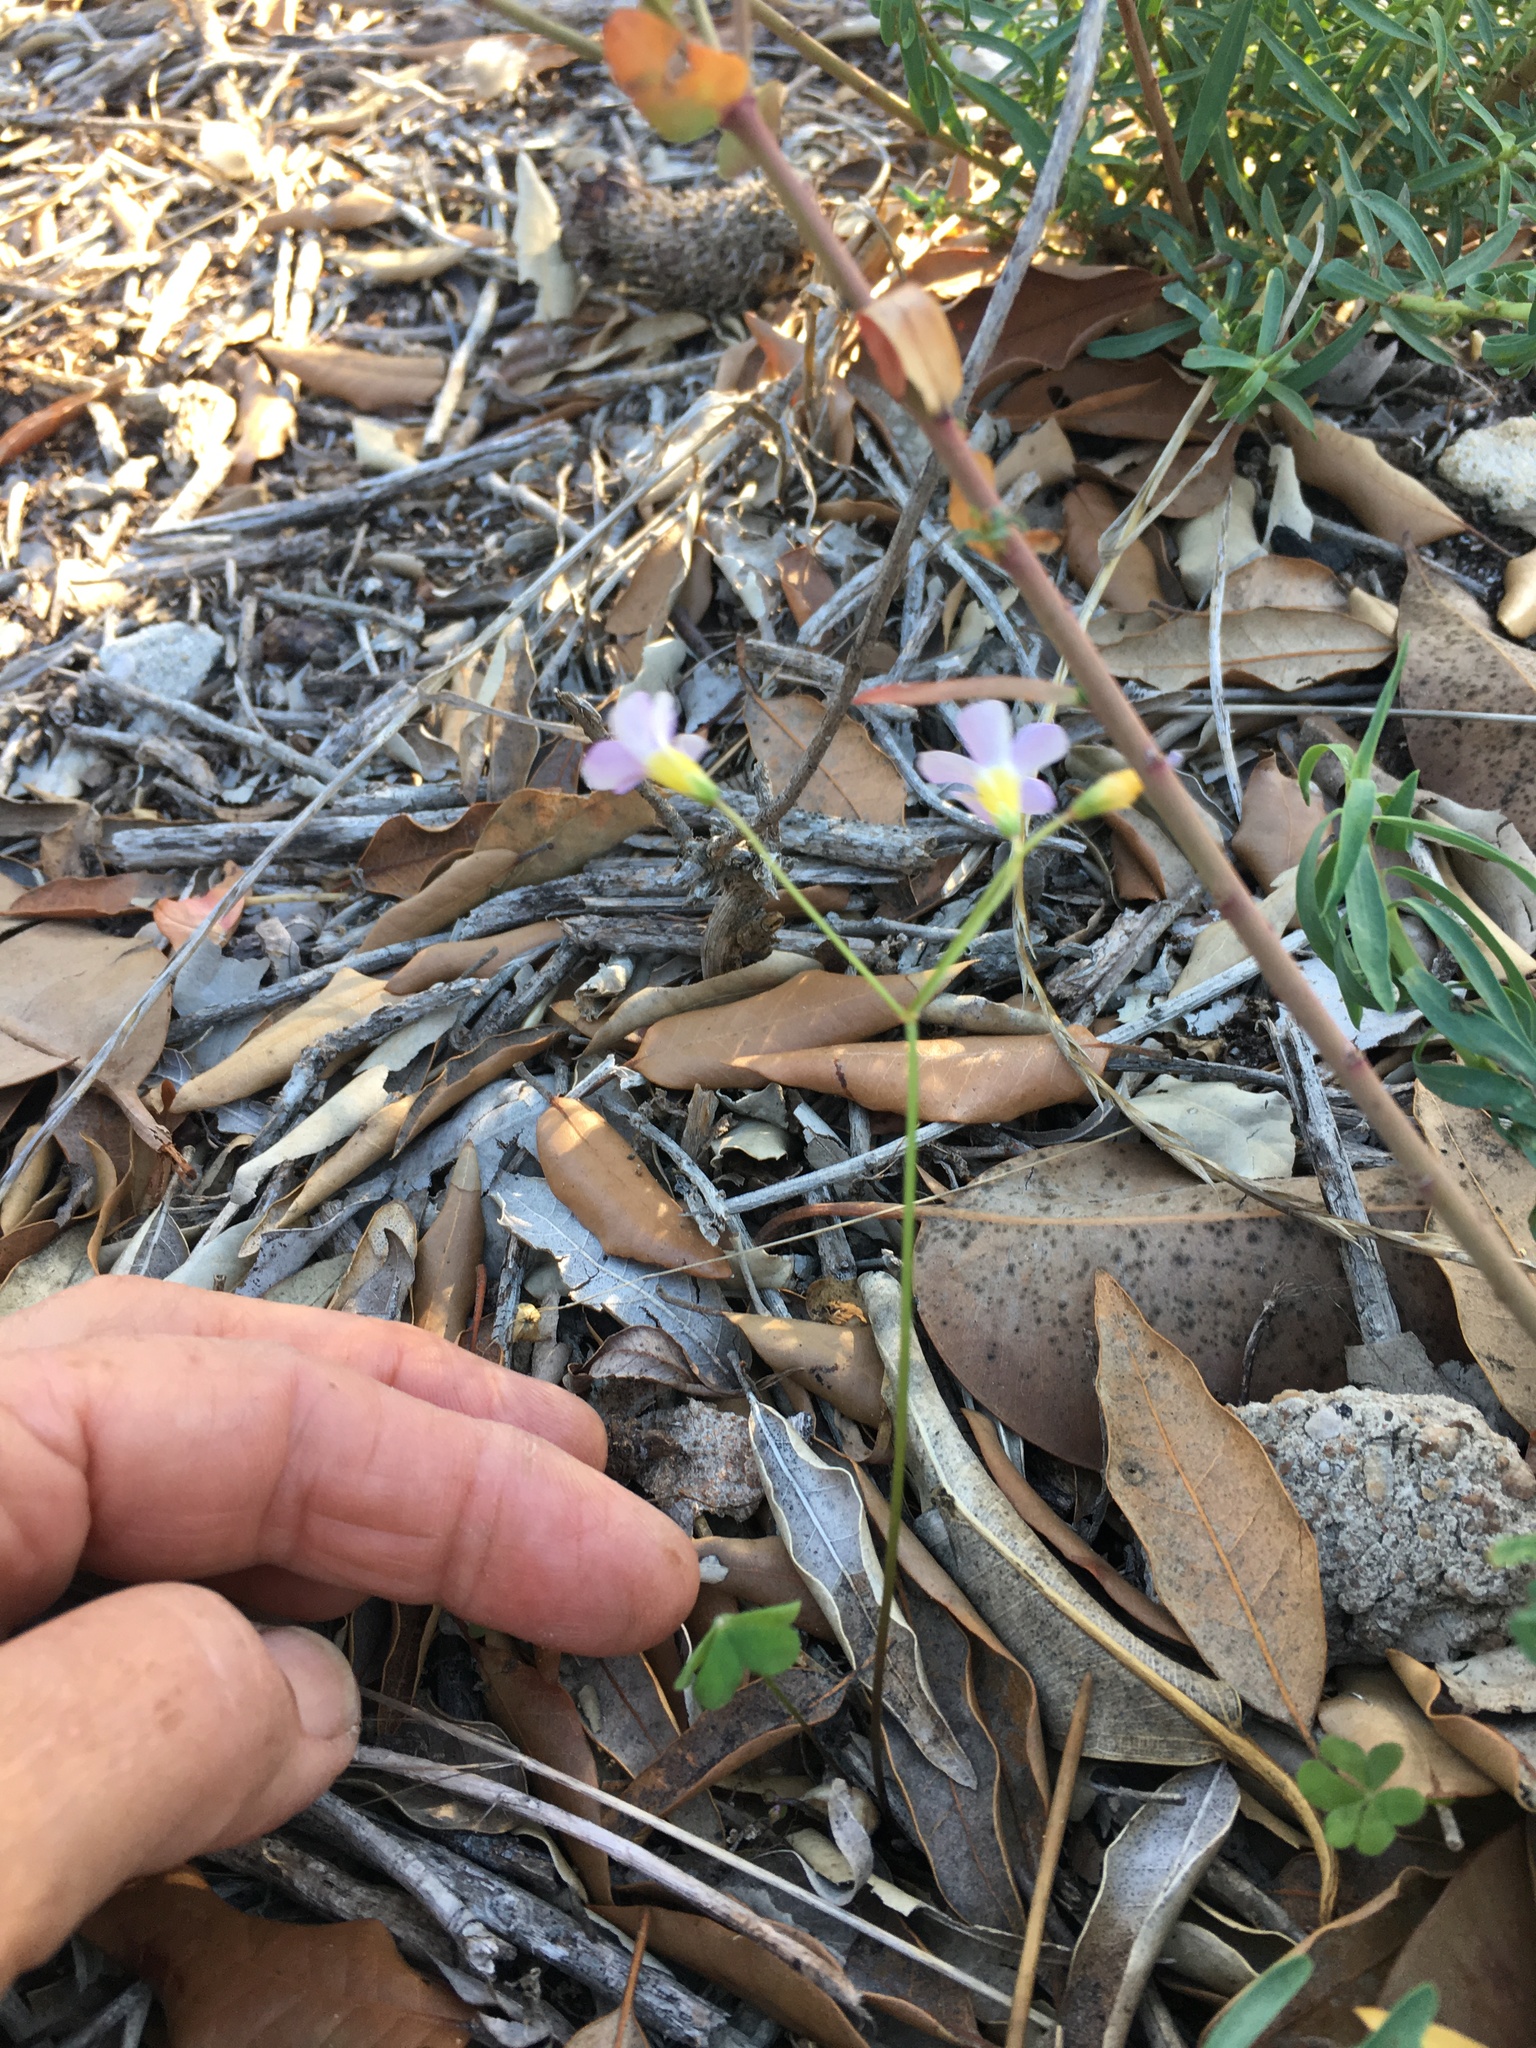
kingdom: Plantae
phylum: Tracheophyta
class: Magnoliopsida
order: Oxalidales
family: Oxalidaceae
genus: Oxalis
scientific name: Oxalis caprina
